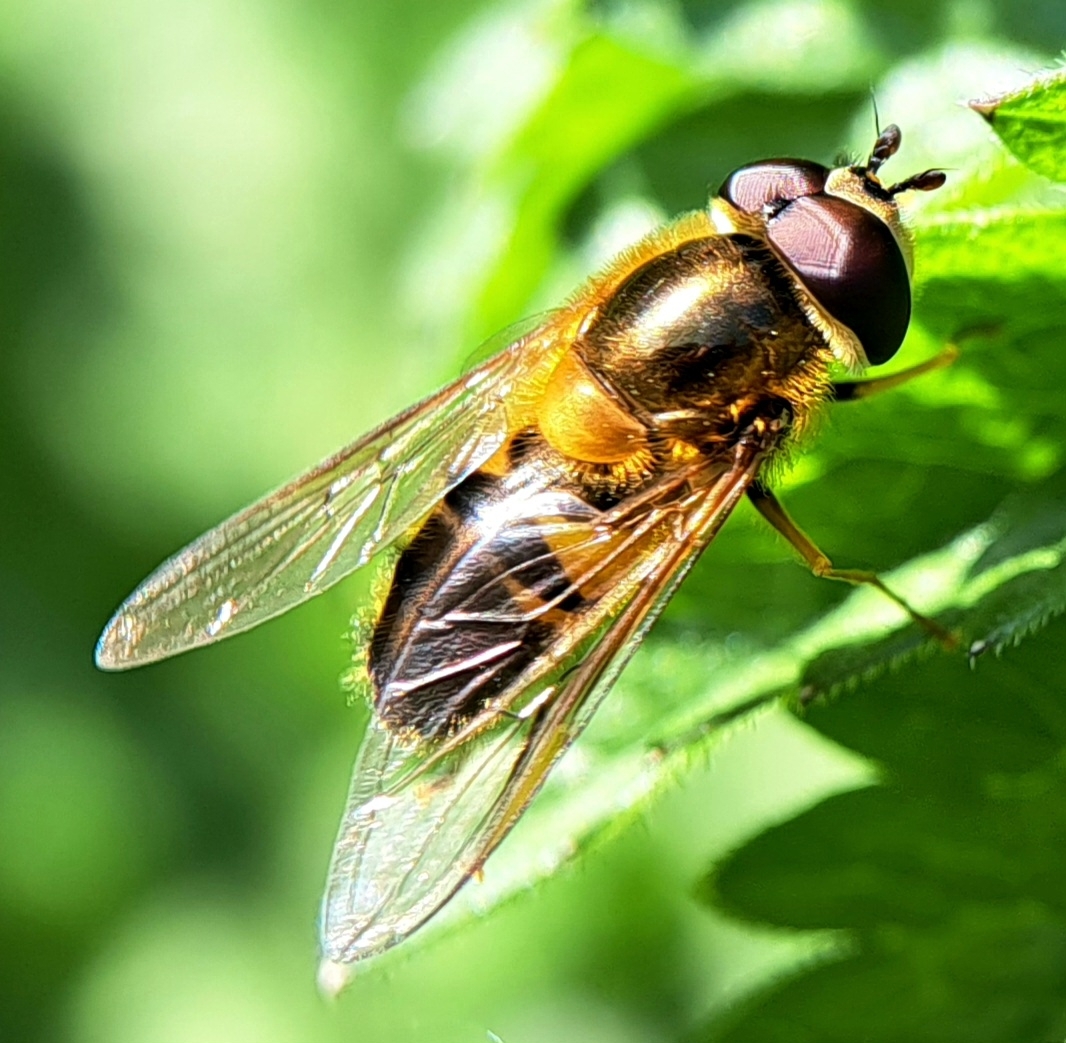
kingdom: Animalia
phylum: Arthropoda
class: Insecta
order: Diptera
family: Syrphidae
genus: Epistrophe
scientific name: Epistrophe eligans
